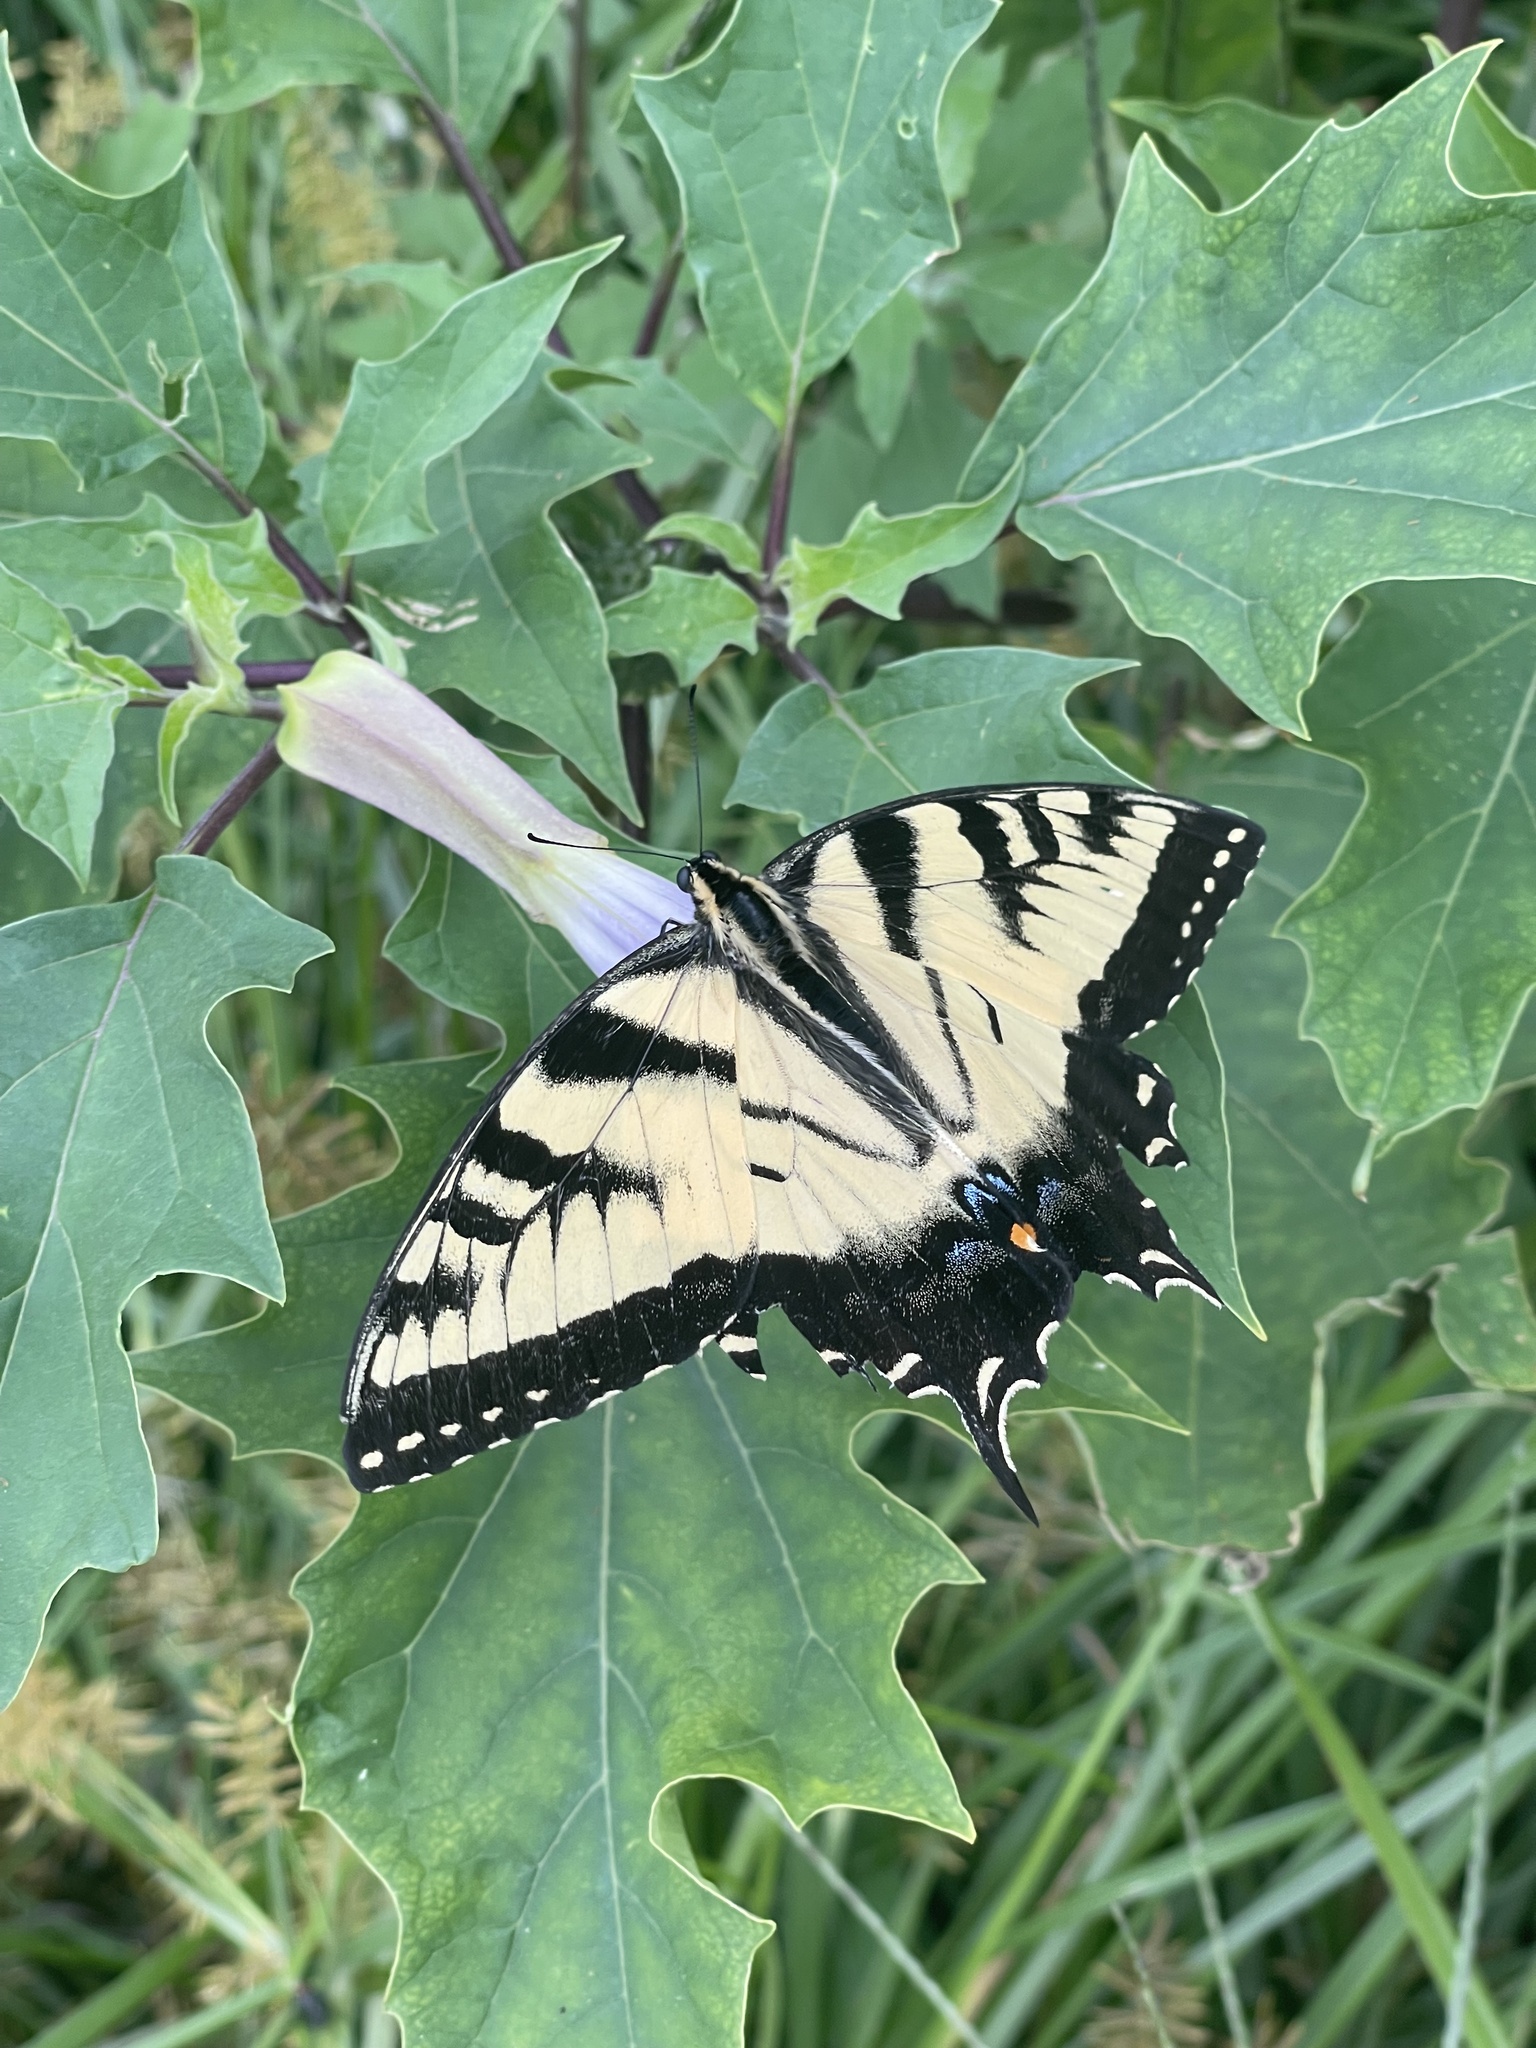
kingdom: Animalia
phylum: Arthropoda
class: Insecta
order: Lepidoptera
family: Papilionidae
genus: Papilio
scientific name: Papilio glaucus
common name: Tiger swallowtail
